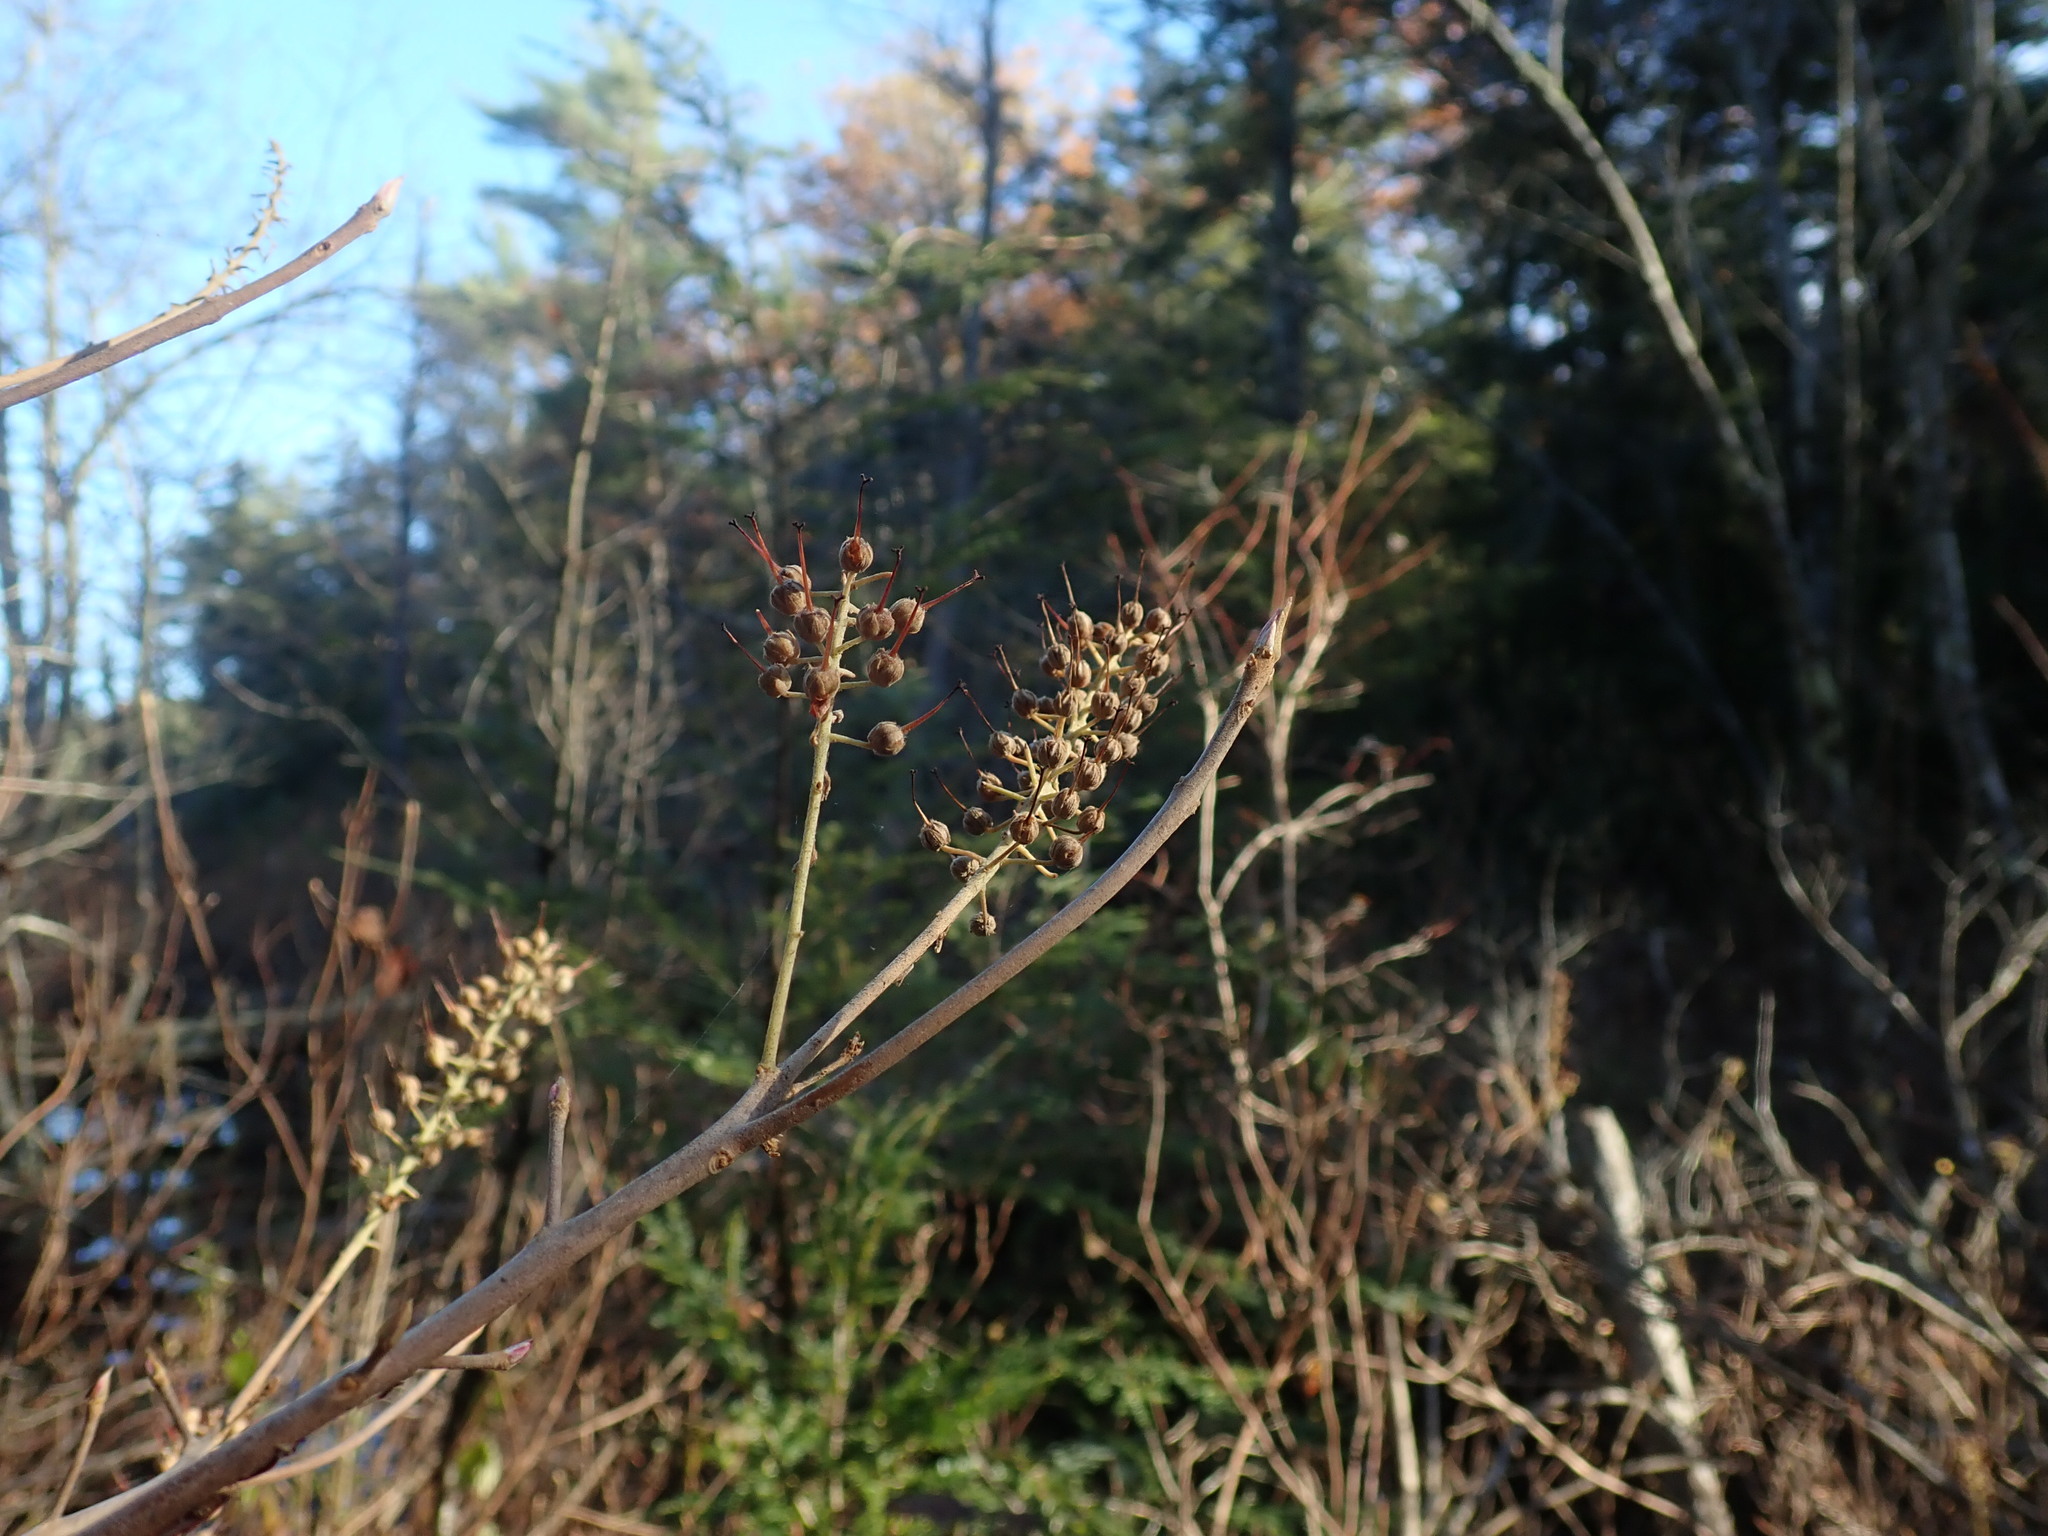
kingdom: Plantae
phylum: Tracheophyta
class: Magnoliopsida
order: Ericales
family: Clethraceae
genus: Clethra
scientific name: Clethra alnifolia
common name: Sweet pepperbush
